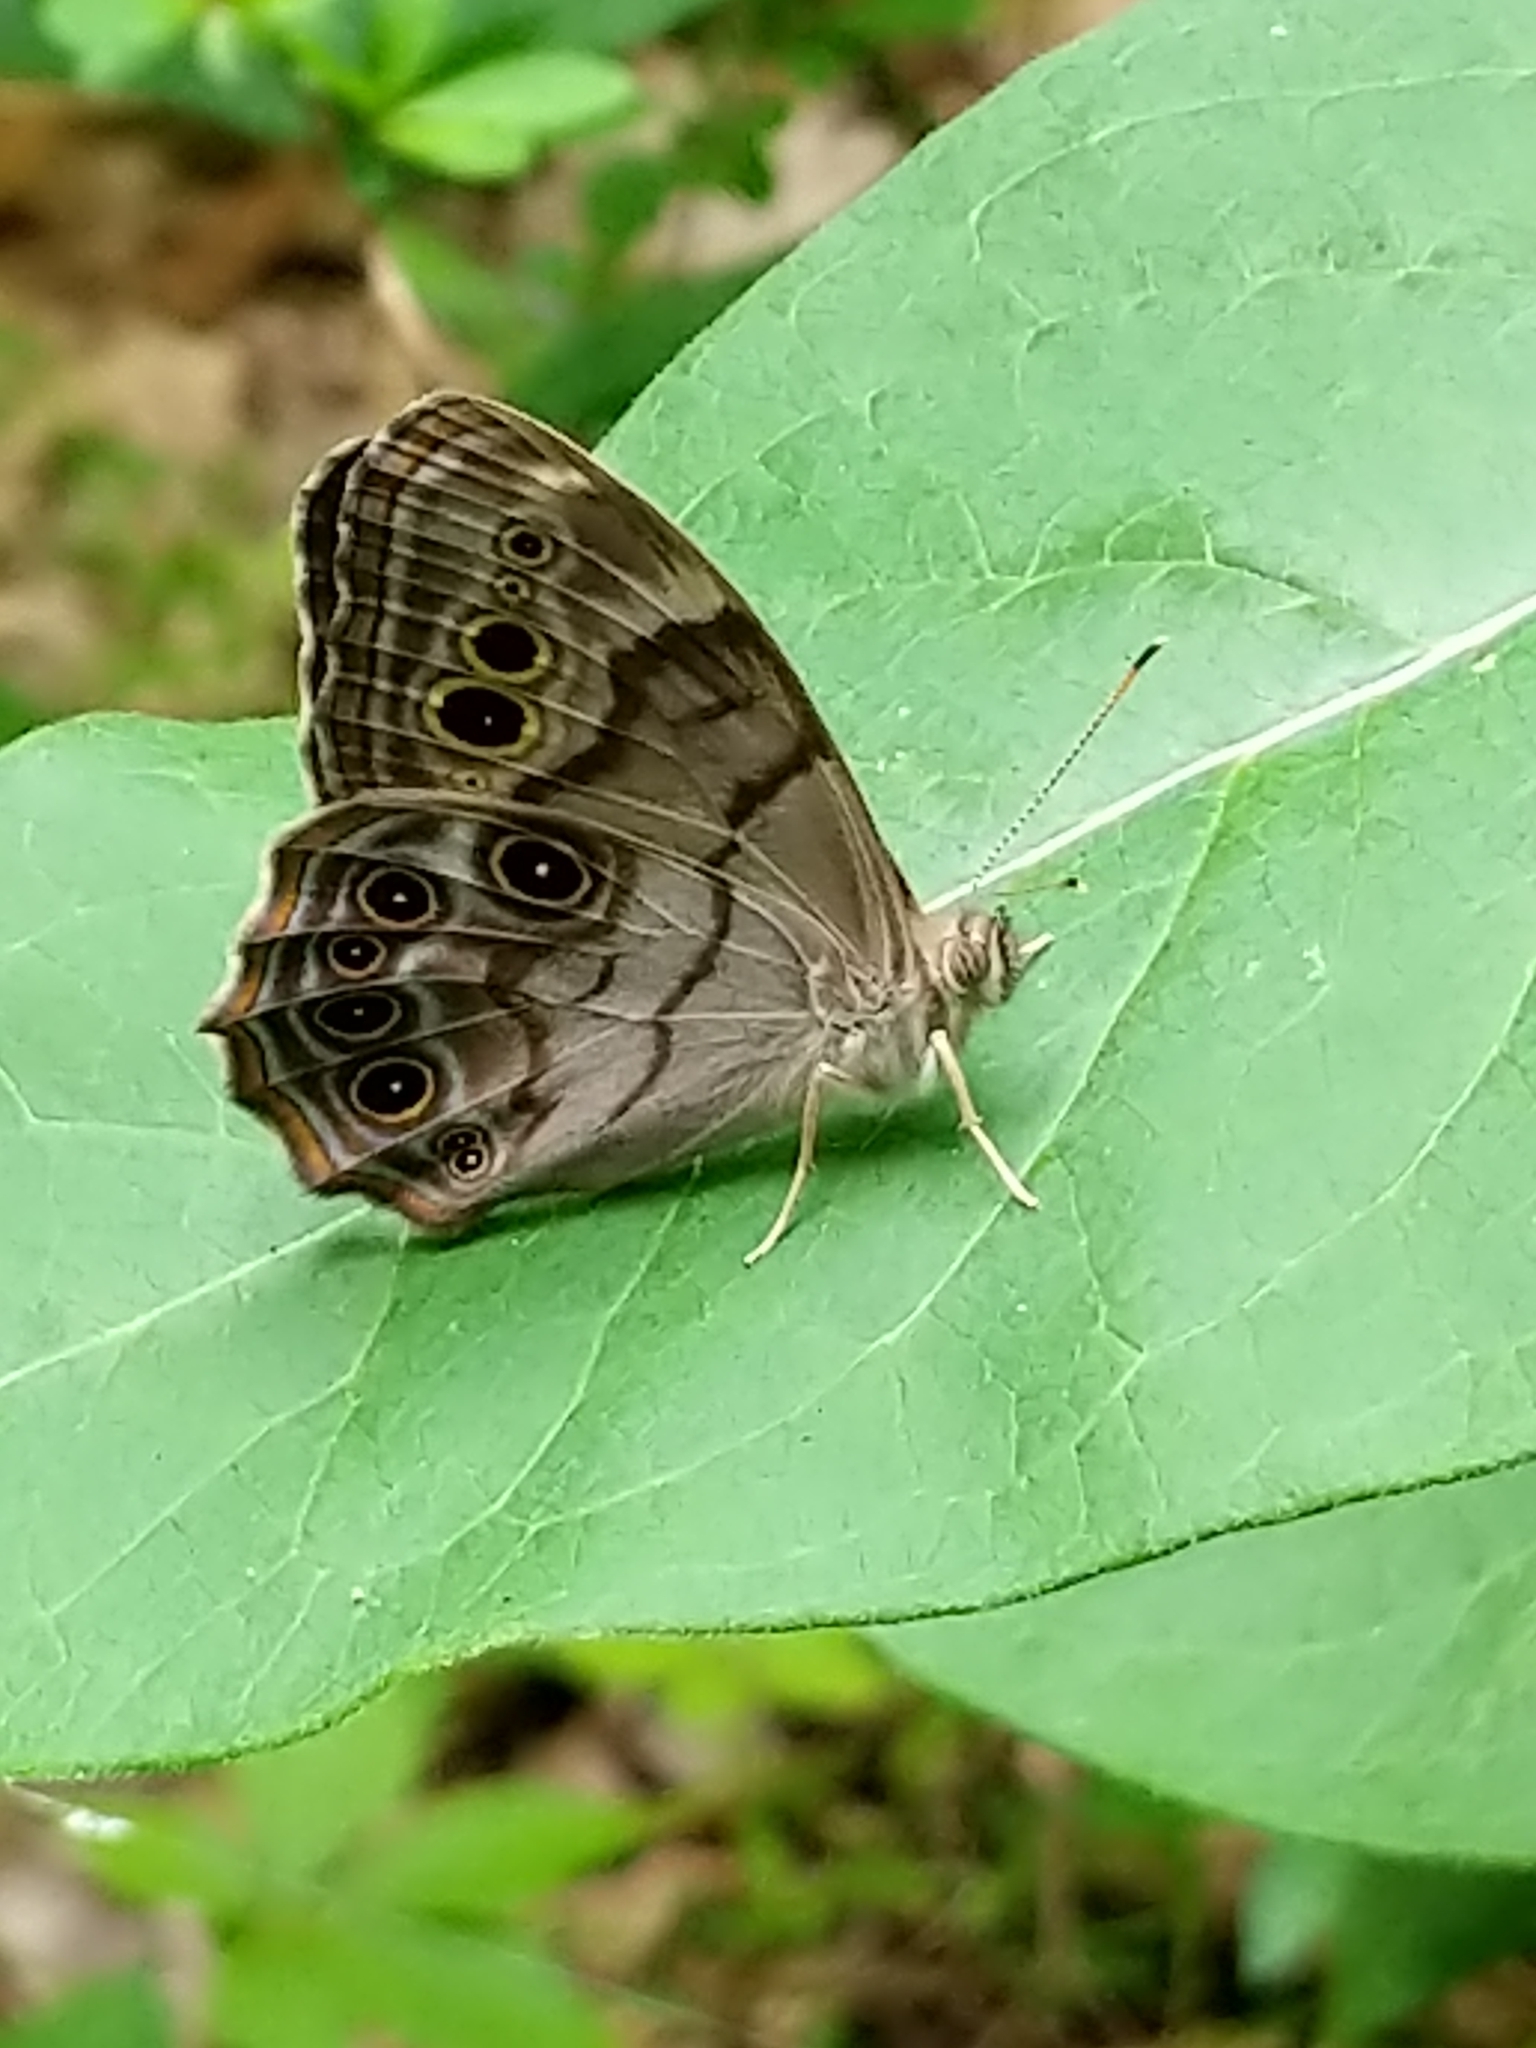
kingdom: Animalia
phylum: Arthropoda
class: Insecta
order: Lepidoptera
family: Nymphalidae
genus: Lethe
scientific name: Lethe anthedon
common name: Northern pearly-eye
